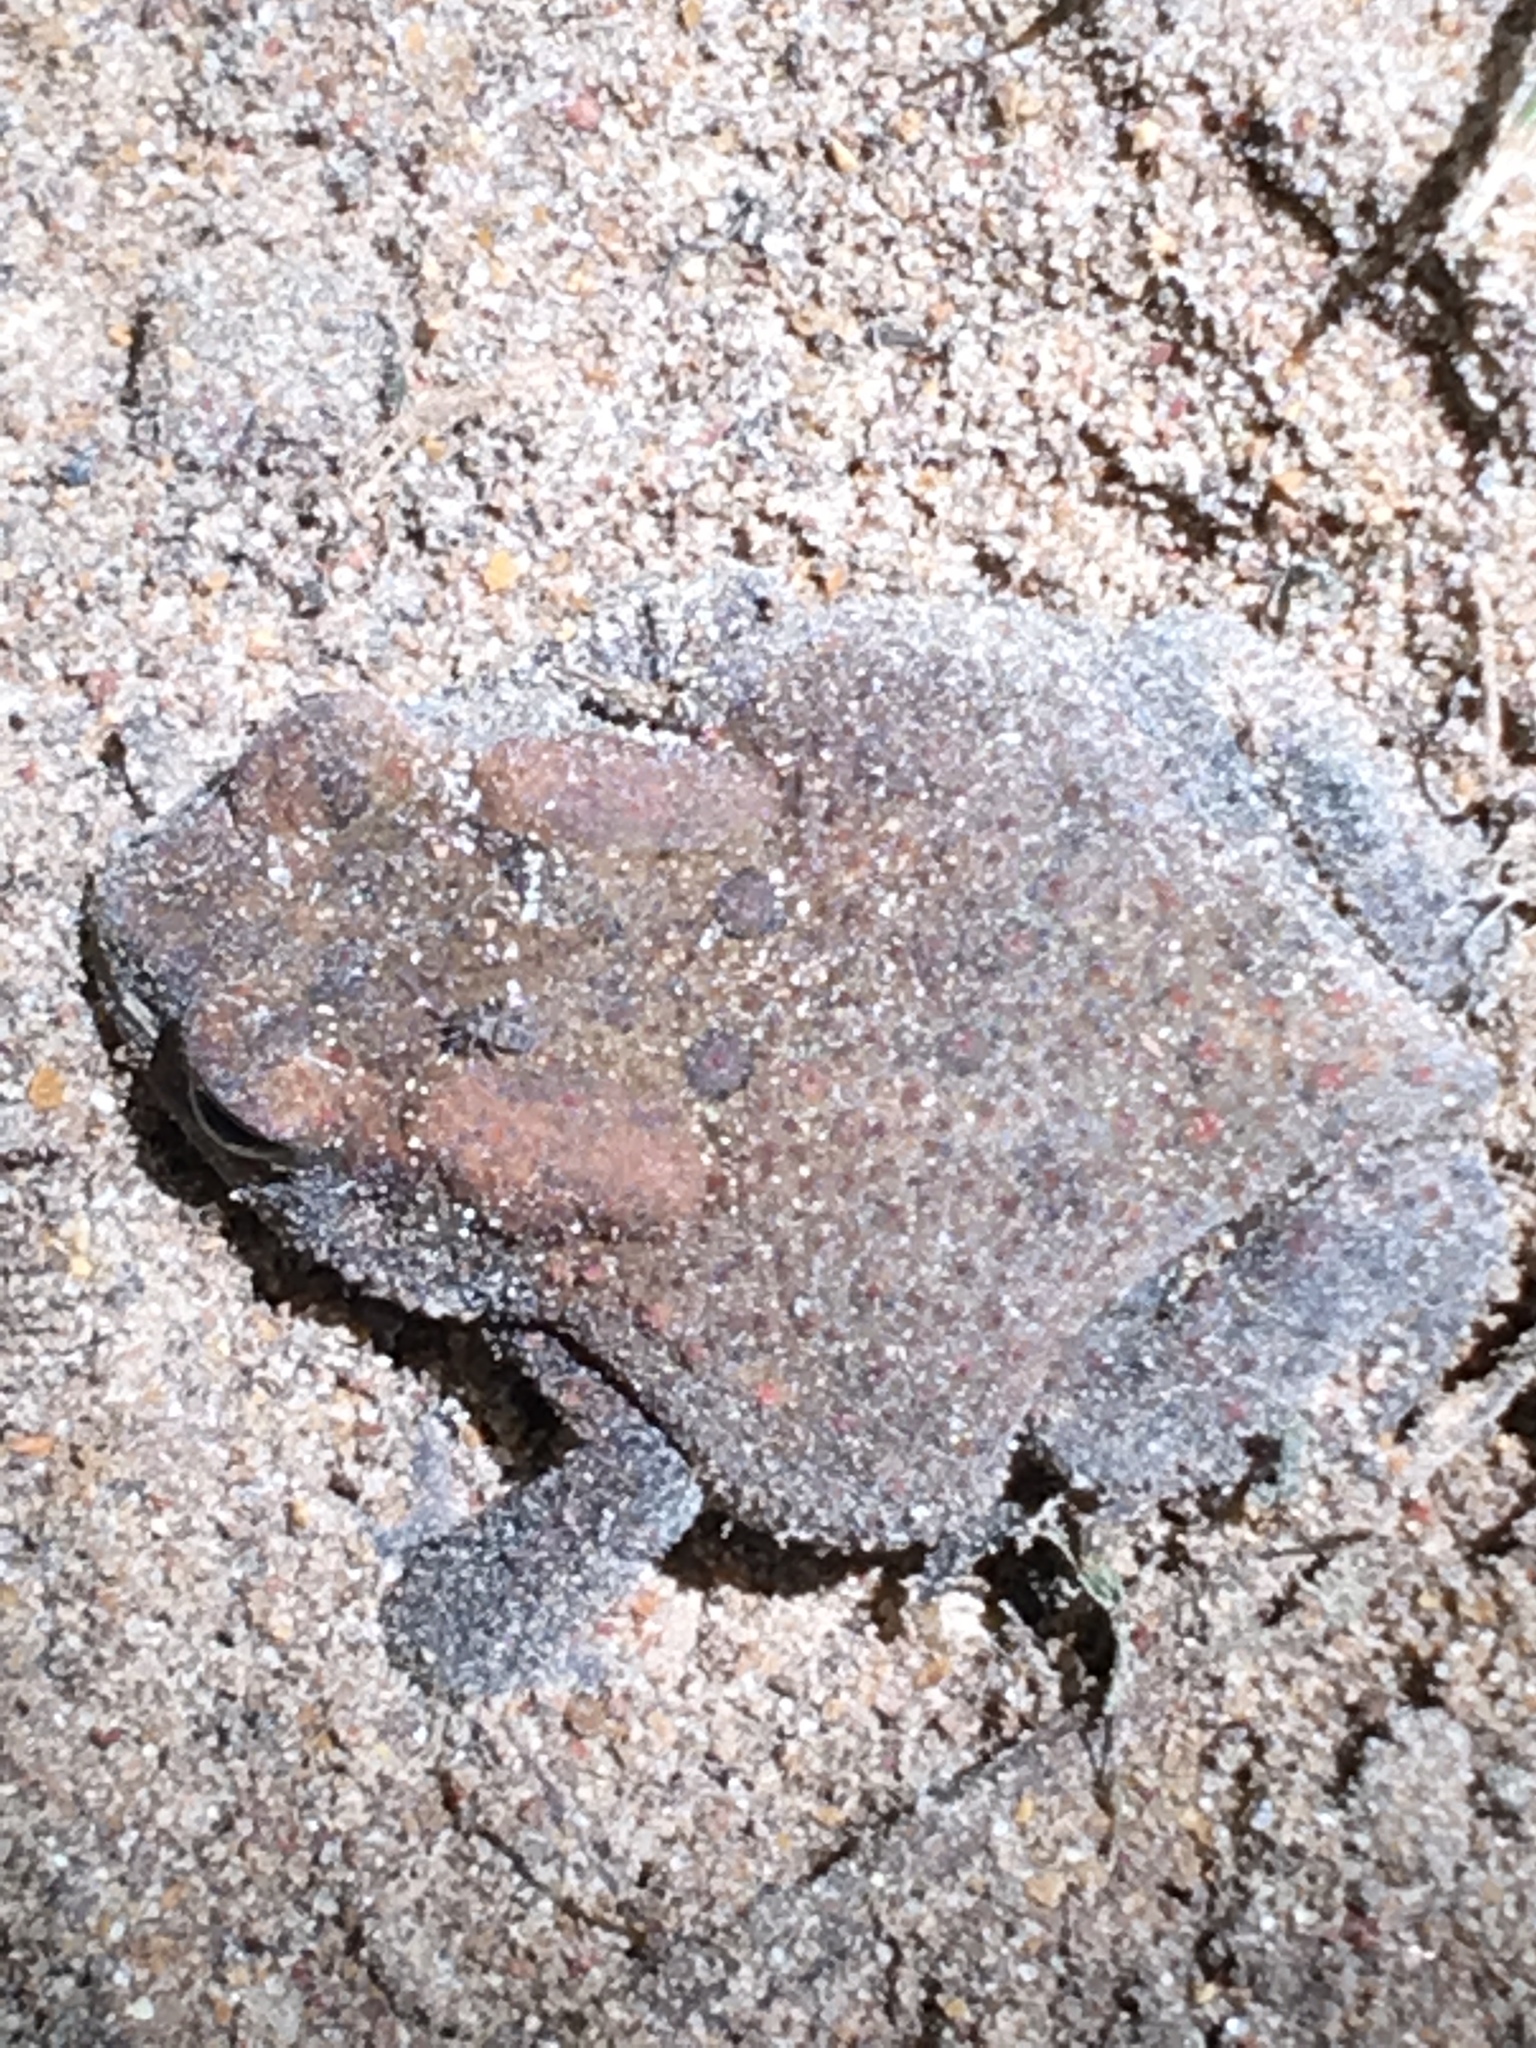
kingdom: Animalia
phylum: Chordata
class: Amphibia
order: Anura
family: Bufonidae
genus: Anaxyrus
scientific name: Anaxyrus americanus
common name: American toad
